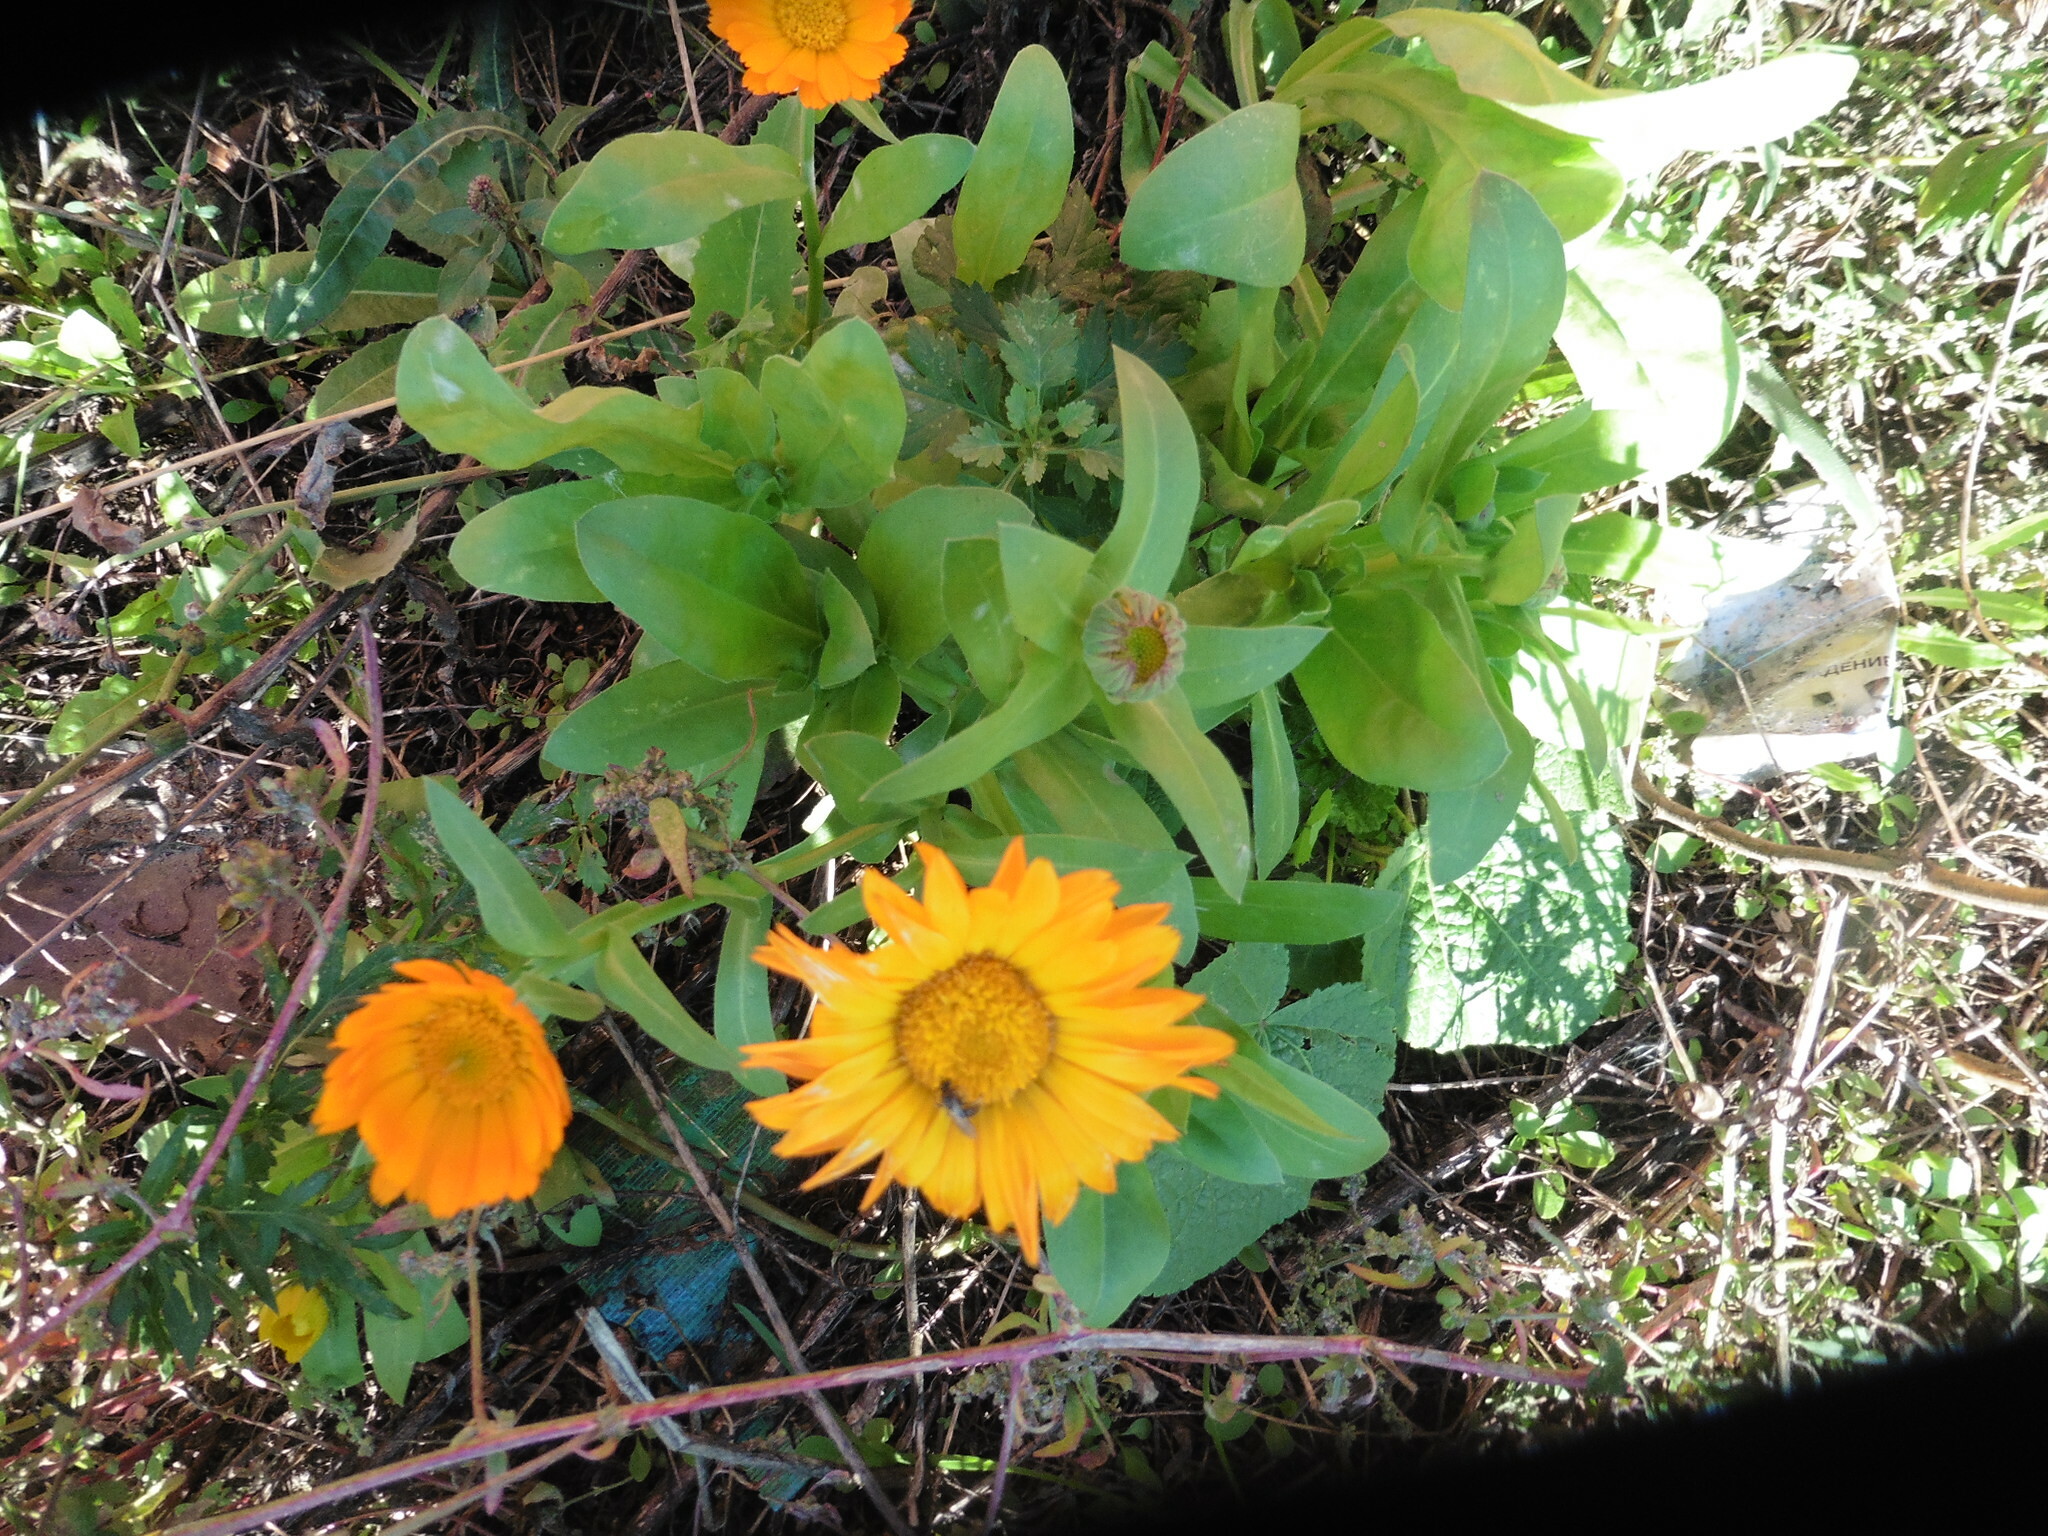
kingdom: Plantae
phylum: Tracheophyta
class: Magnoliopsida
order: Asterales
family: Asteraceae
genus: Calendula
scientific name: Calendula officinalis
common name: Pot marigold
